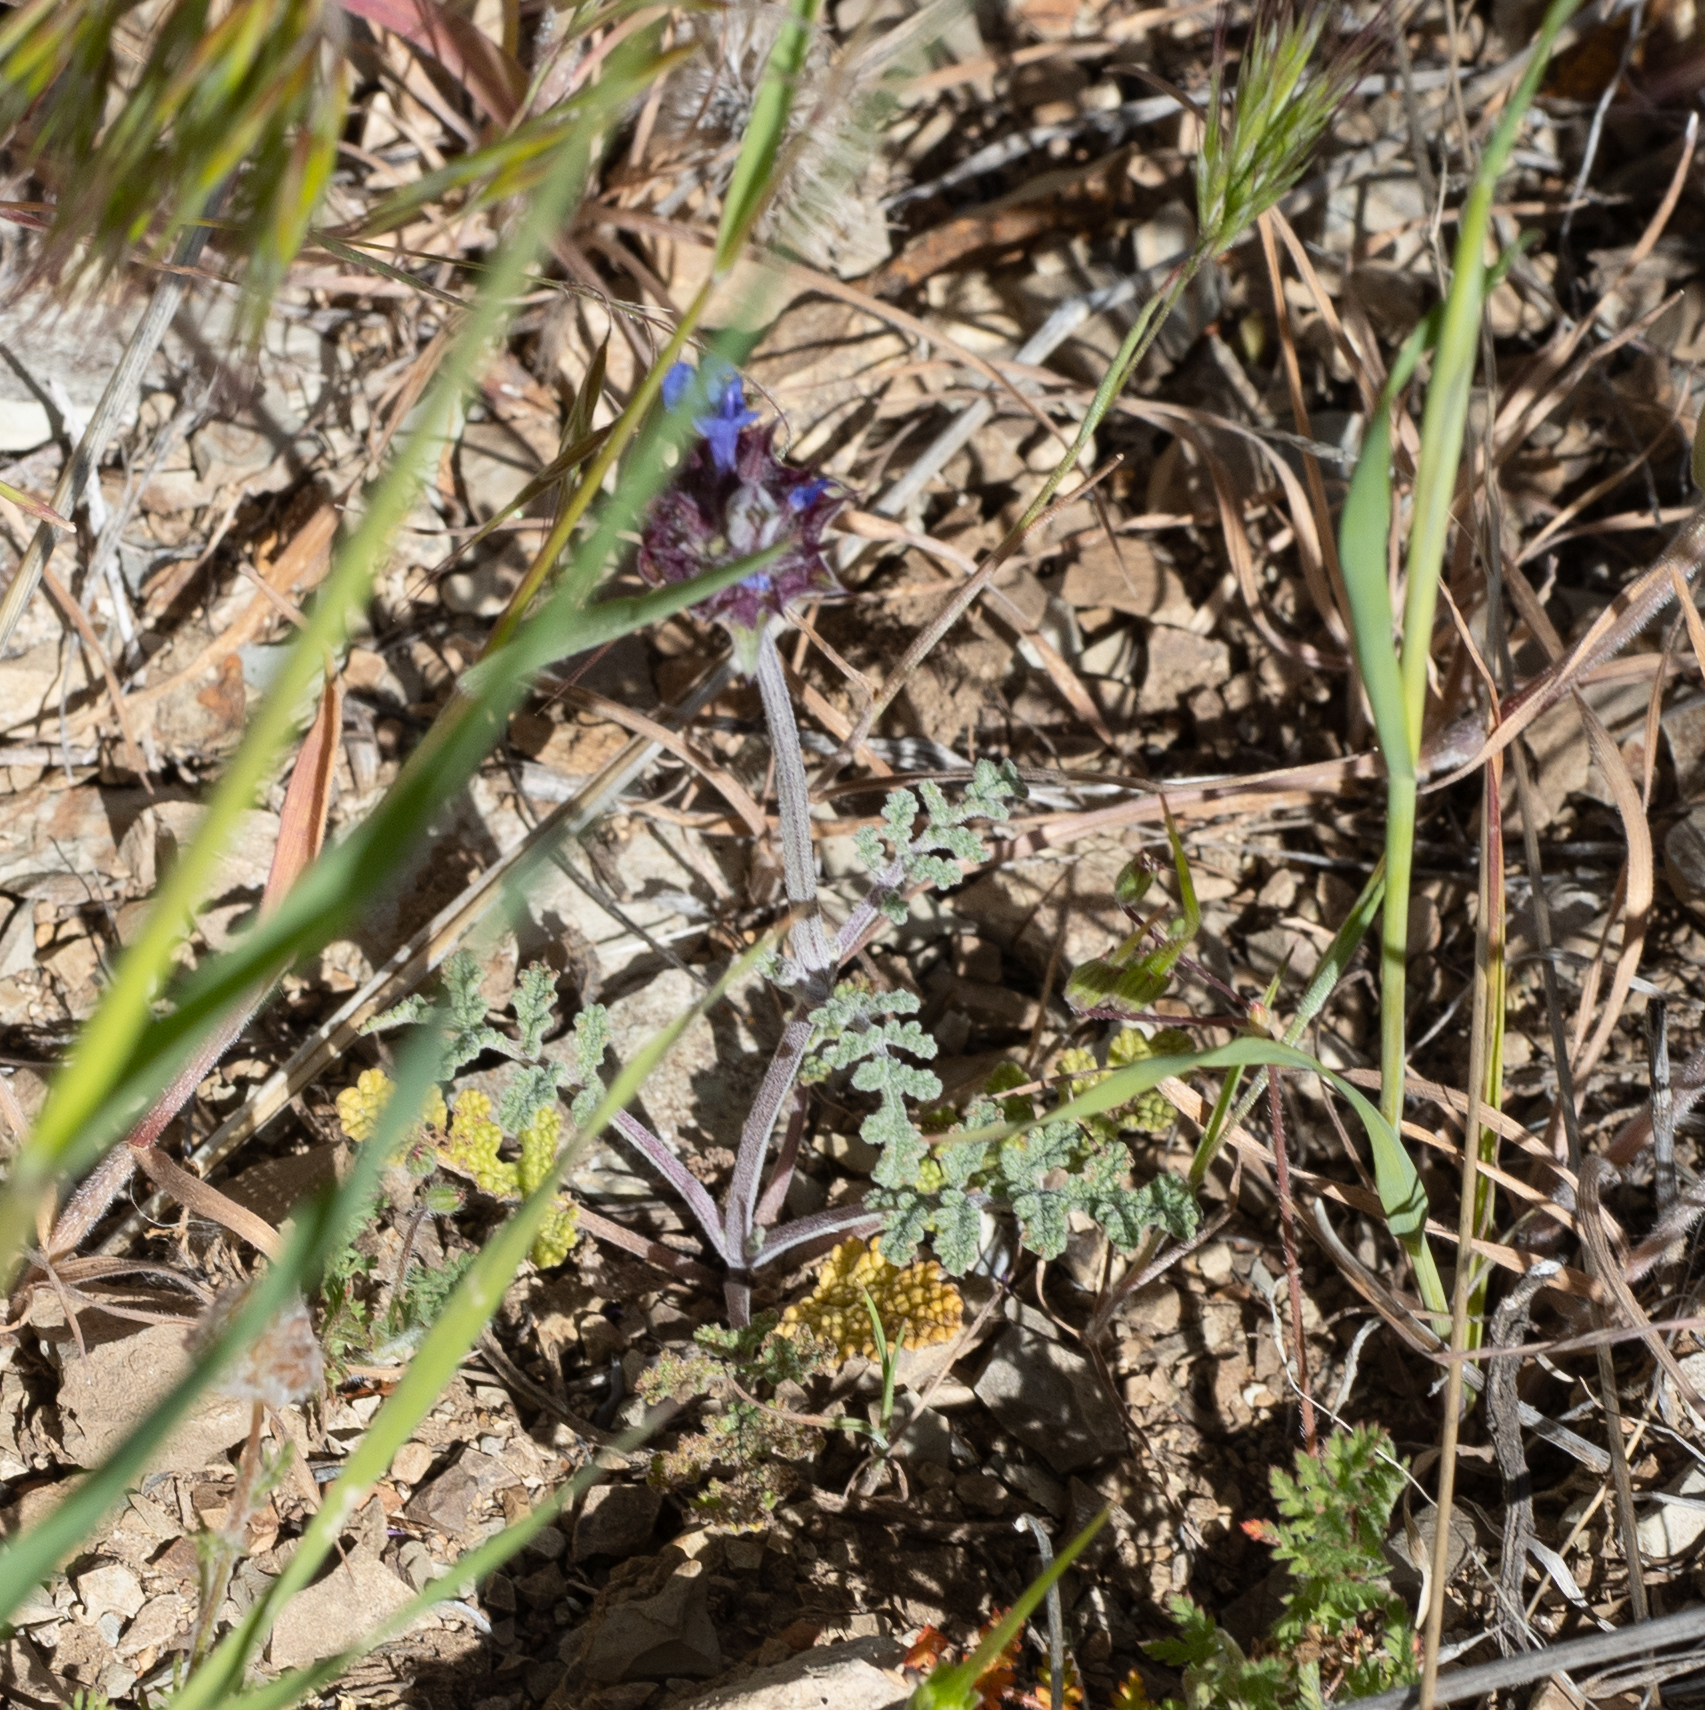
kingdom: Plantae
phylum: Tracheophyta
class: Magnoliopsida
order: Lamiales
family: Lamiaceae
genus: Salvia
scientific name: Salvia columbariae
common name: Chia
